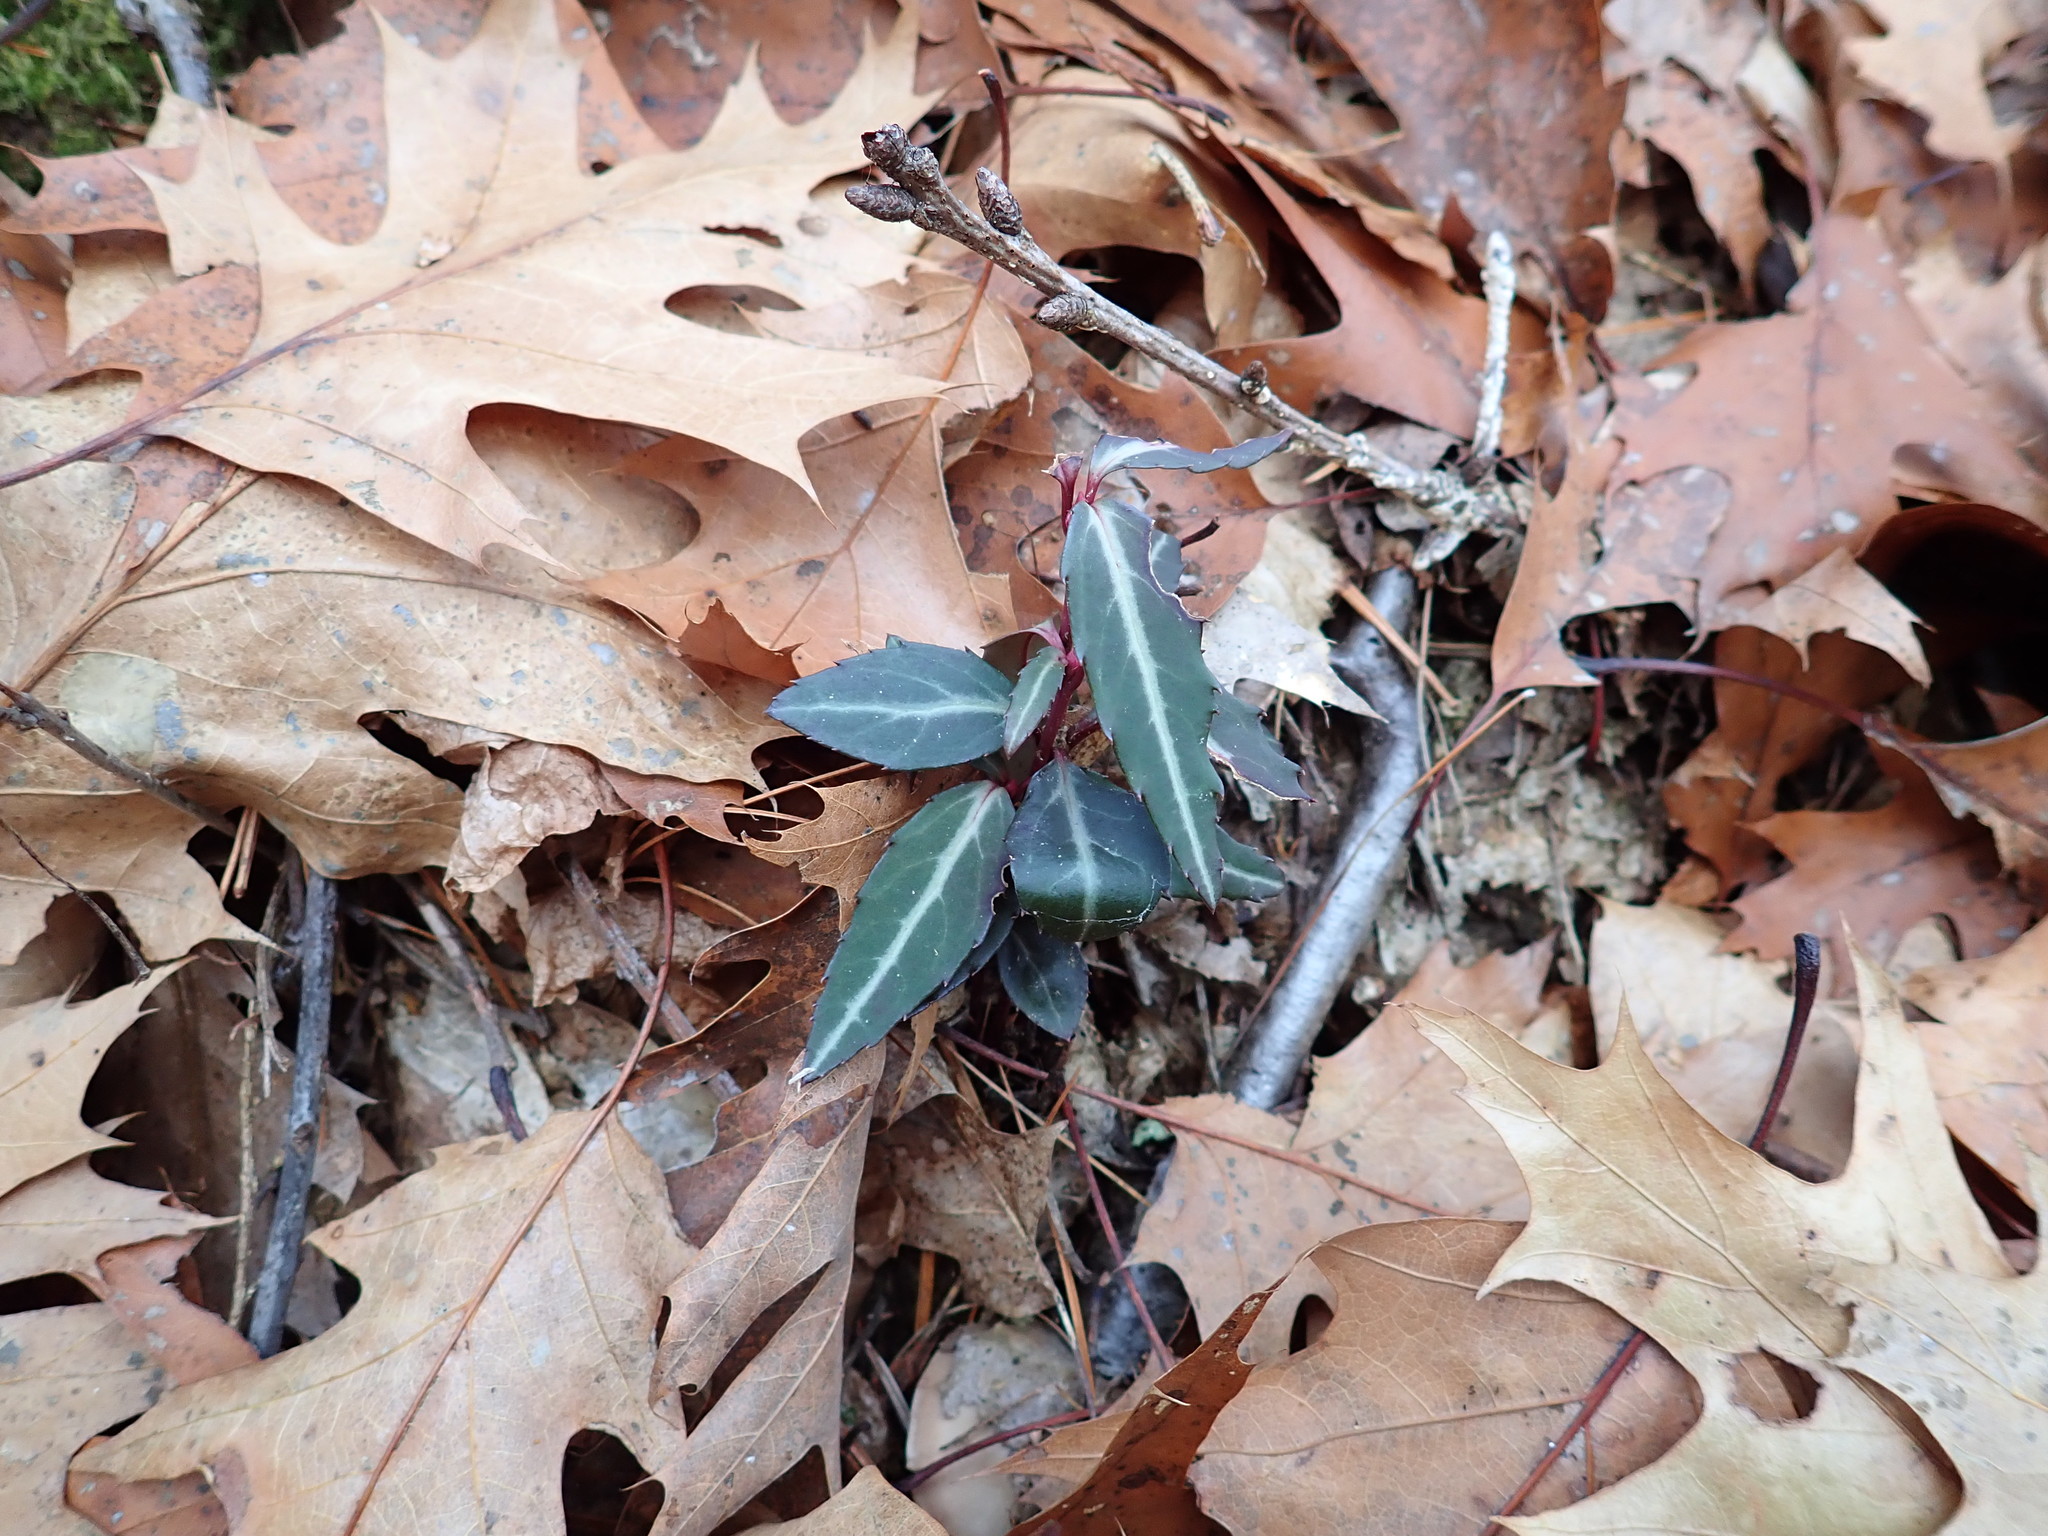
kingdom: Plantae
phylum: Tracheophyta
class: Magnoliopsida
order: Ericales
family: Ericaceae
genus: Chimaphila
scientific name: Chimaphila maculata
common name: Spotted pipsissewa
